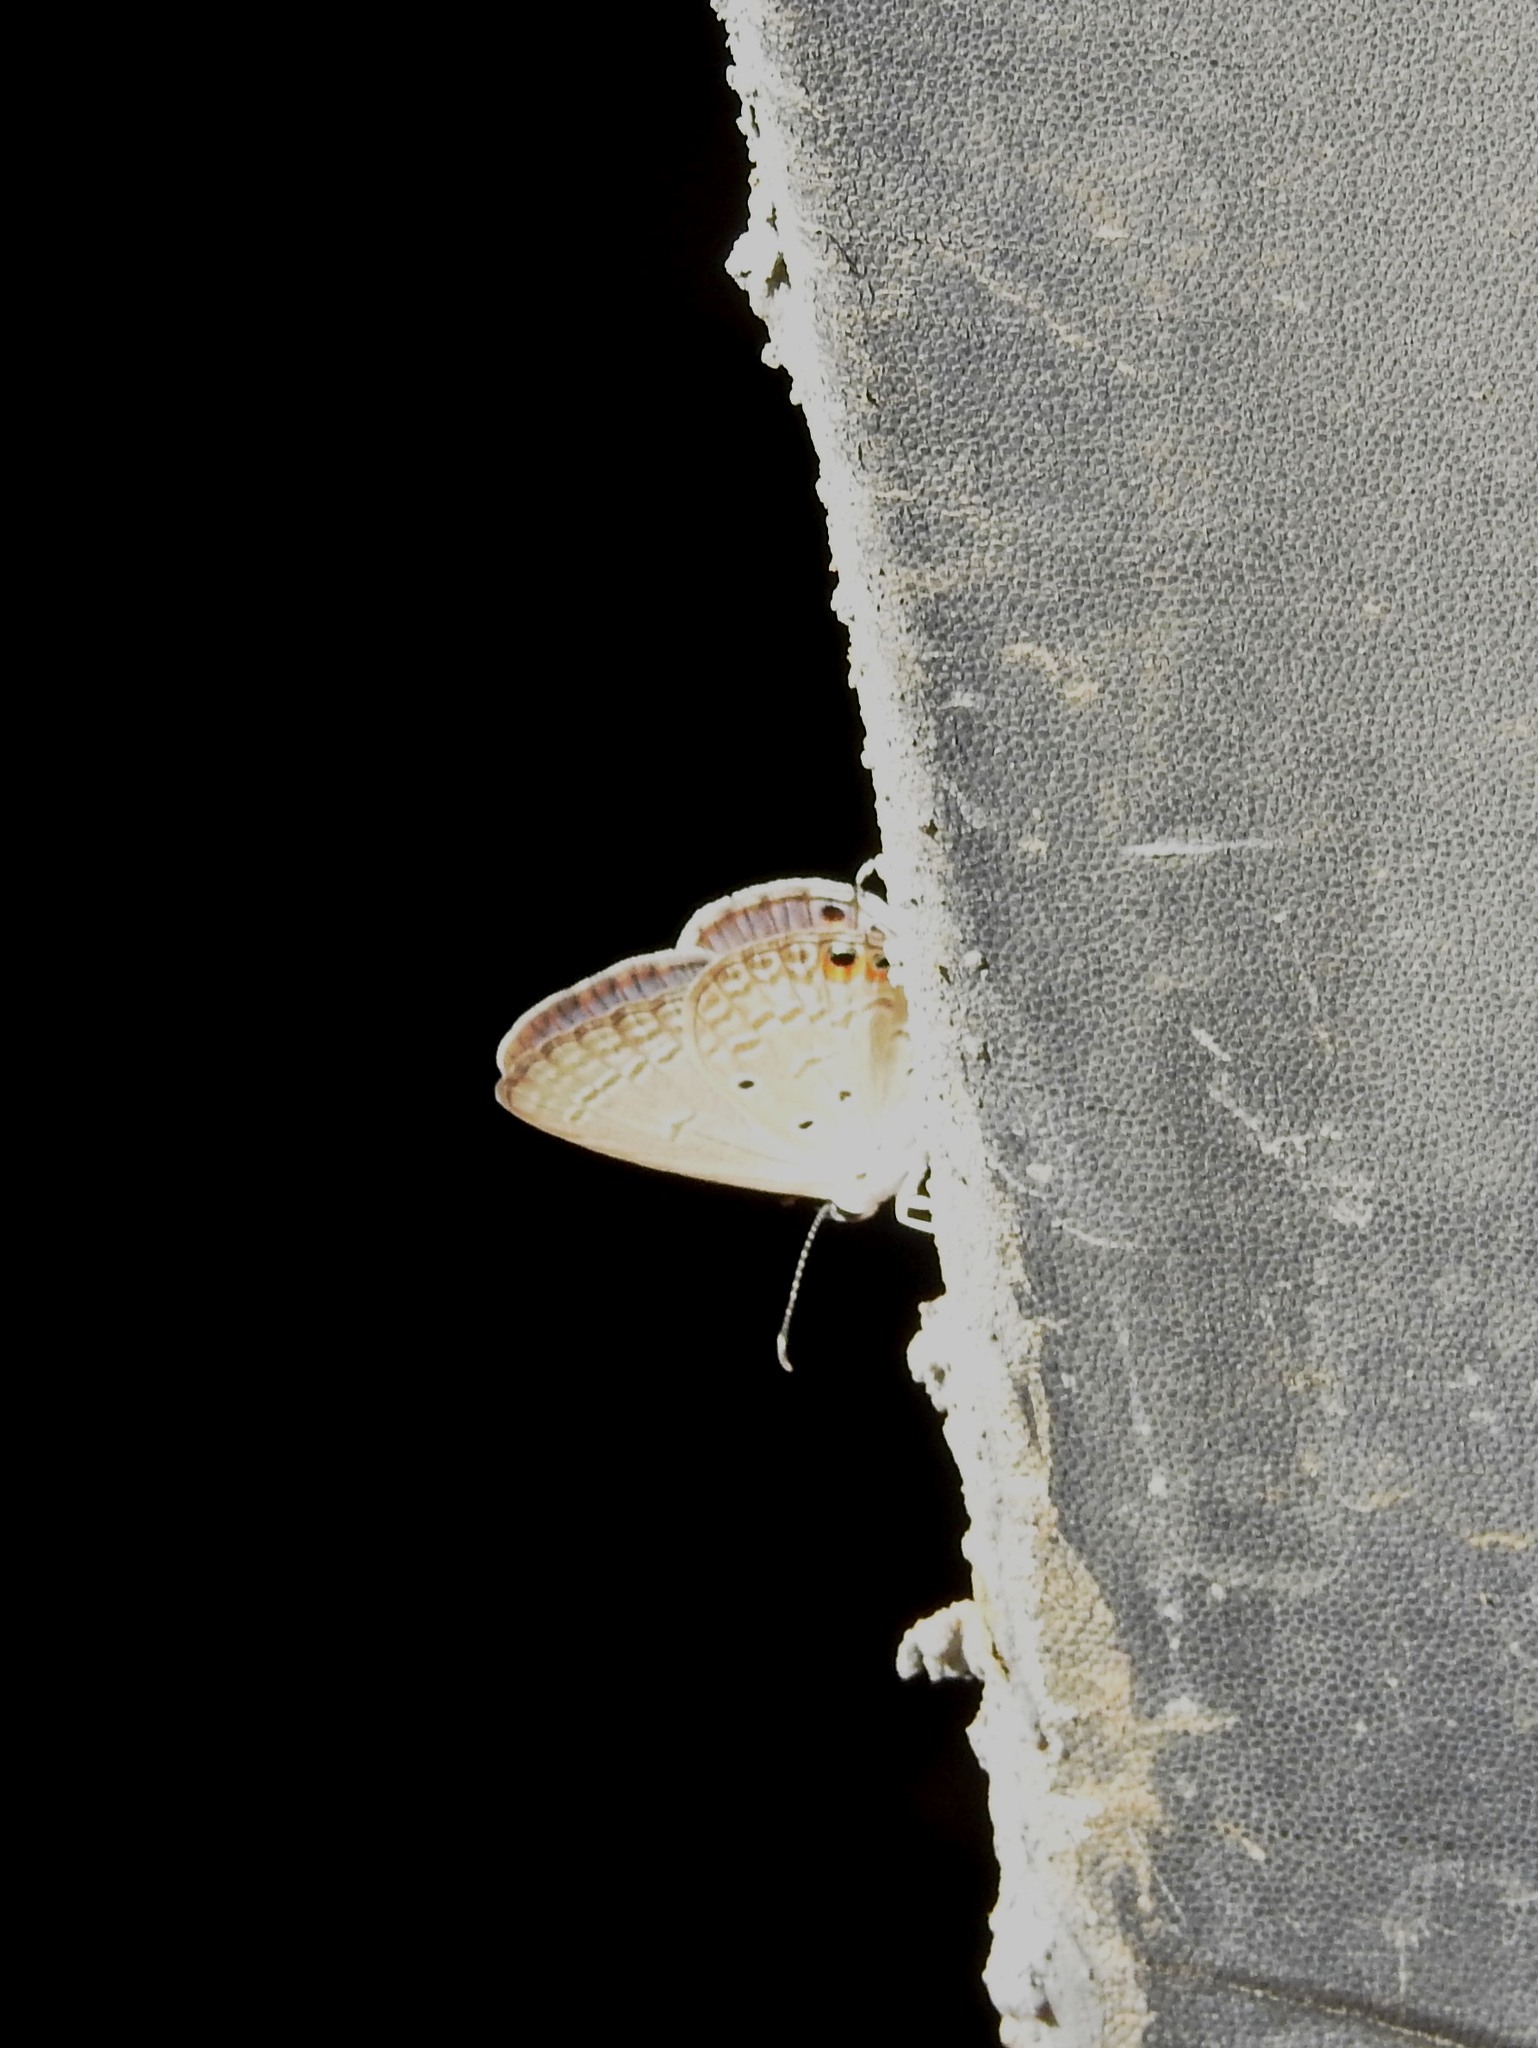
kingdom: Animalia
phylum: Arthropoda
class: Insecta
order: Lepidoptera
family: Lycaenidae
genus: Euchrysops
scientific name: Euchrysops cnejus
